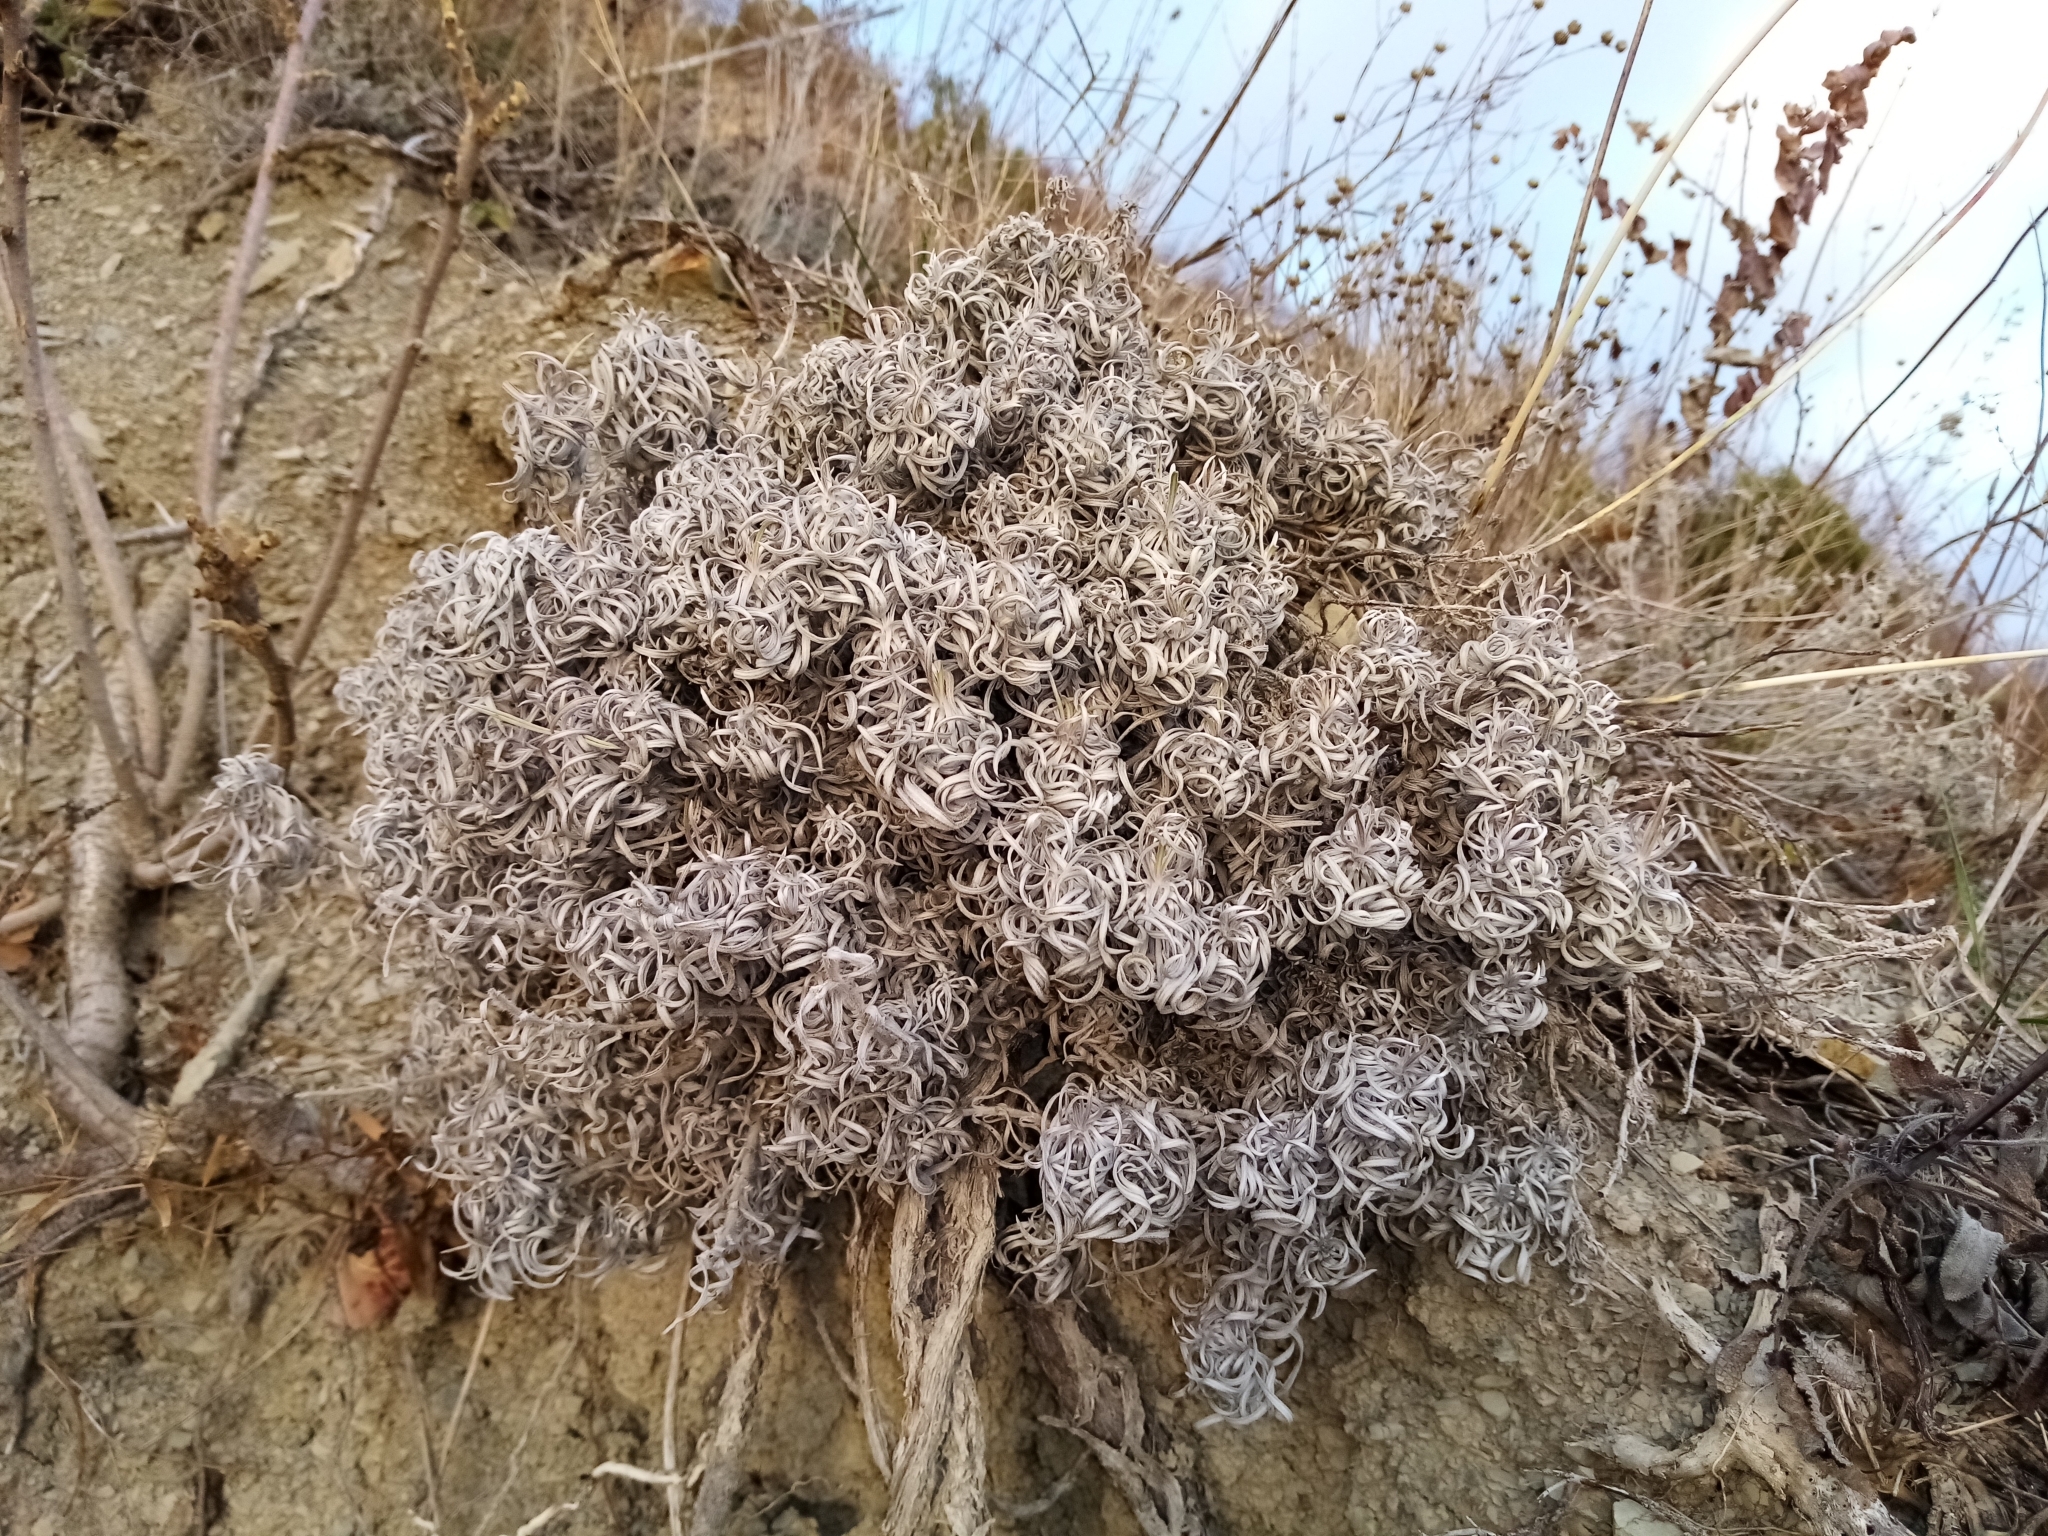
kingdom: Plantae
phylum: Tracheophyta
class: Magnoliopsida
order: Boraginales
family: Boraginaceae
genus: Onosma
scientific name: Onosma polyphylla
